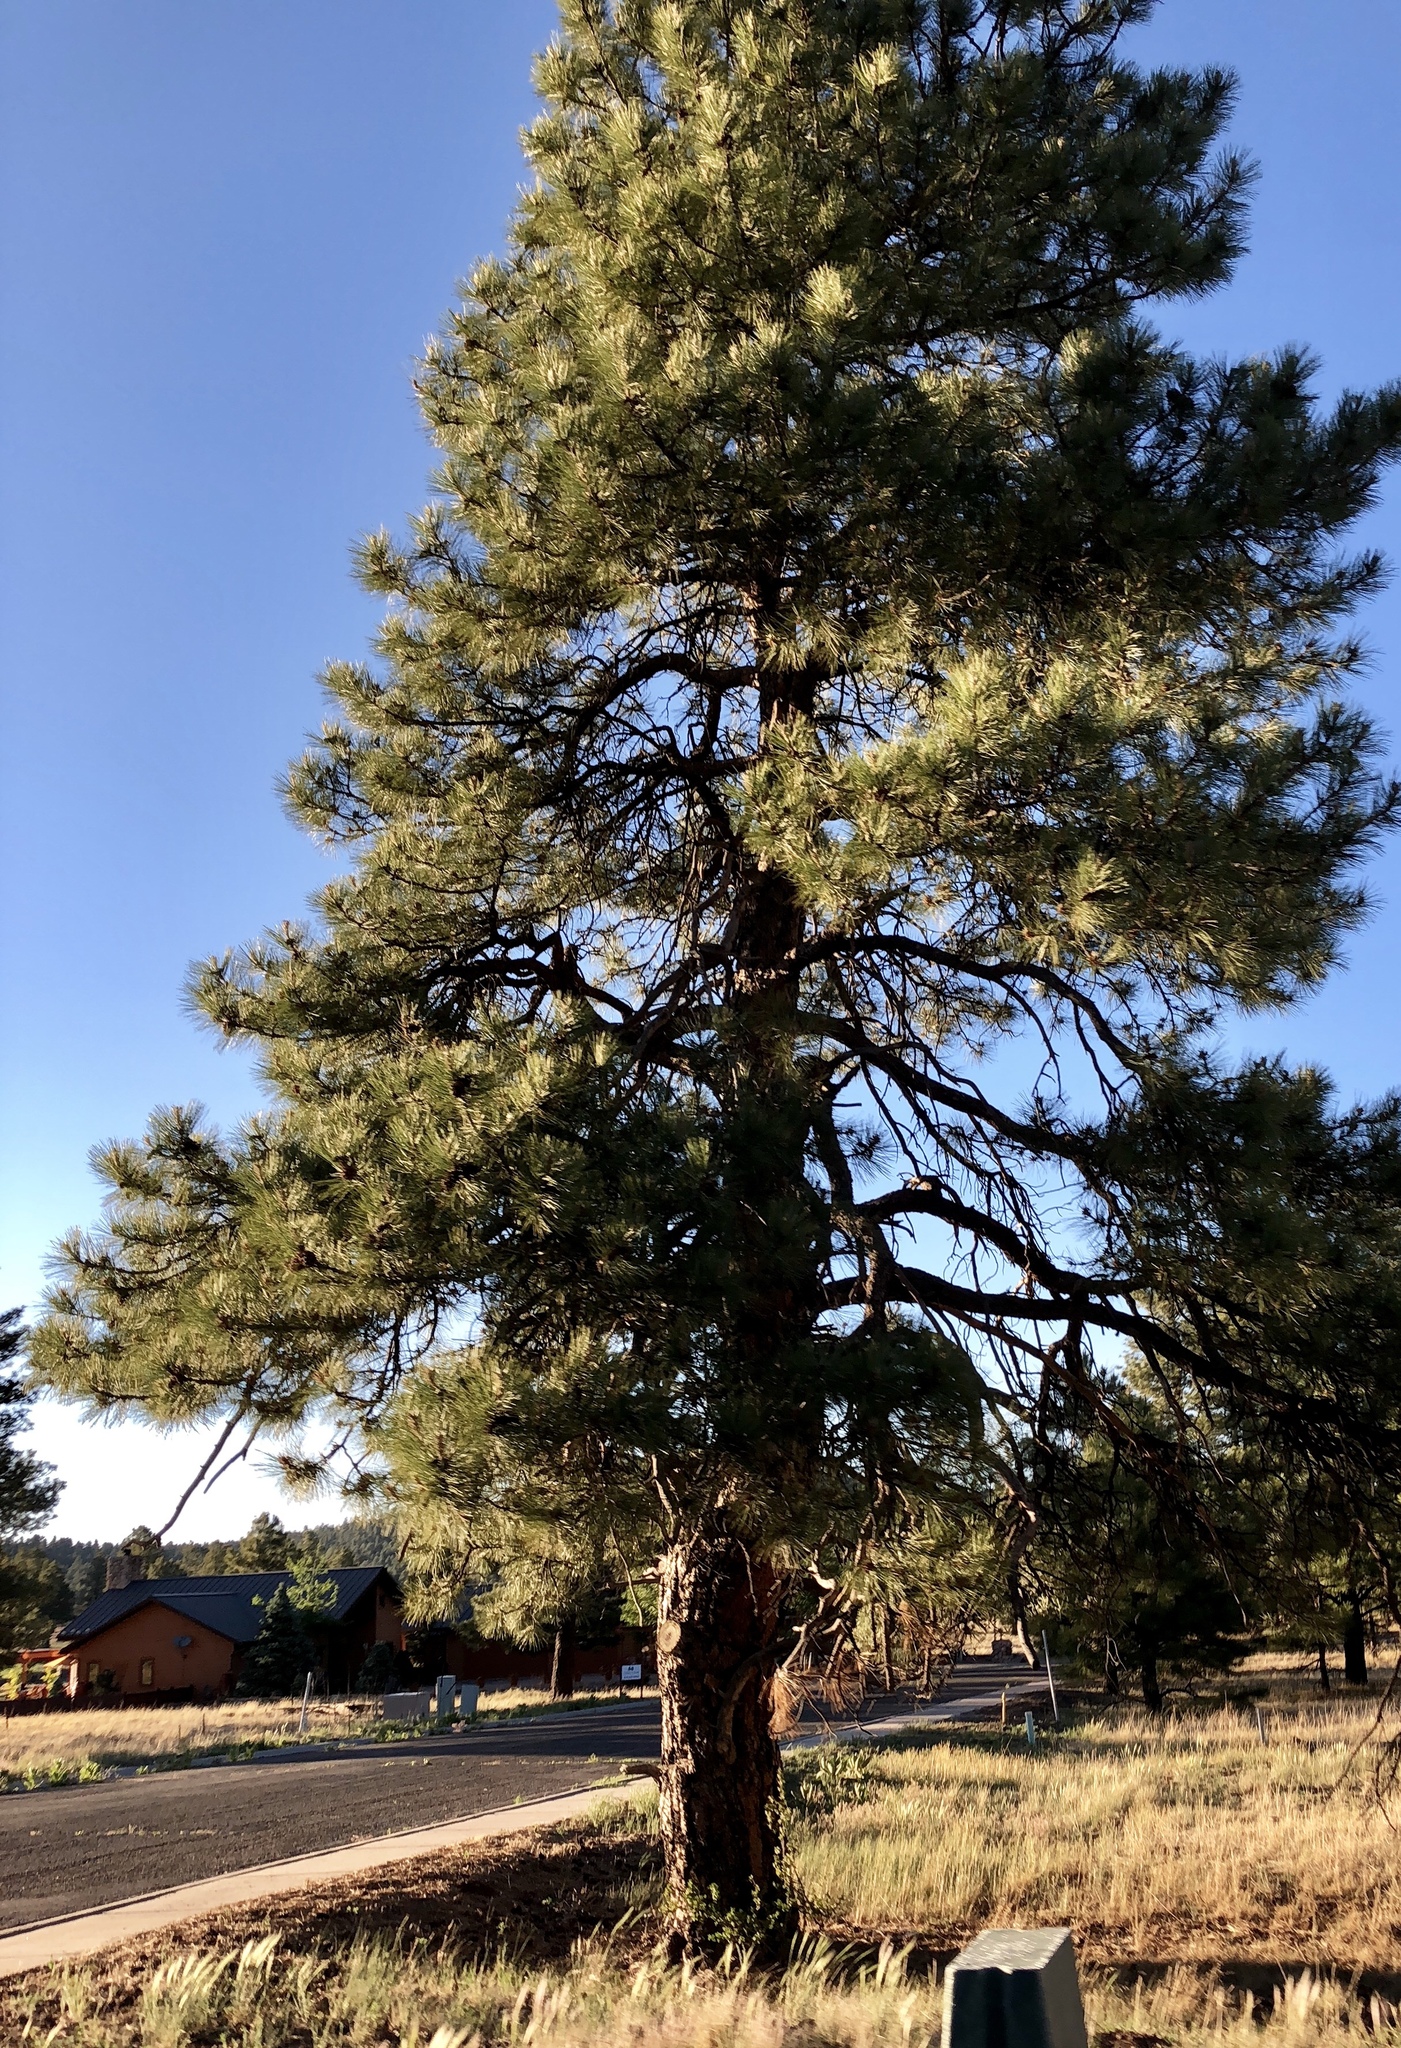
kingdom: Plantae
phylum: Tracheophyta
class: Pinopsida
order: Pinales
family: Pinaceae
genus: Pinus
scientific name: Pinus ponderosa
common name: Western yellow-pine
